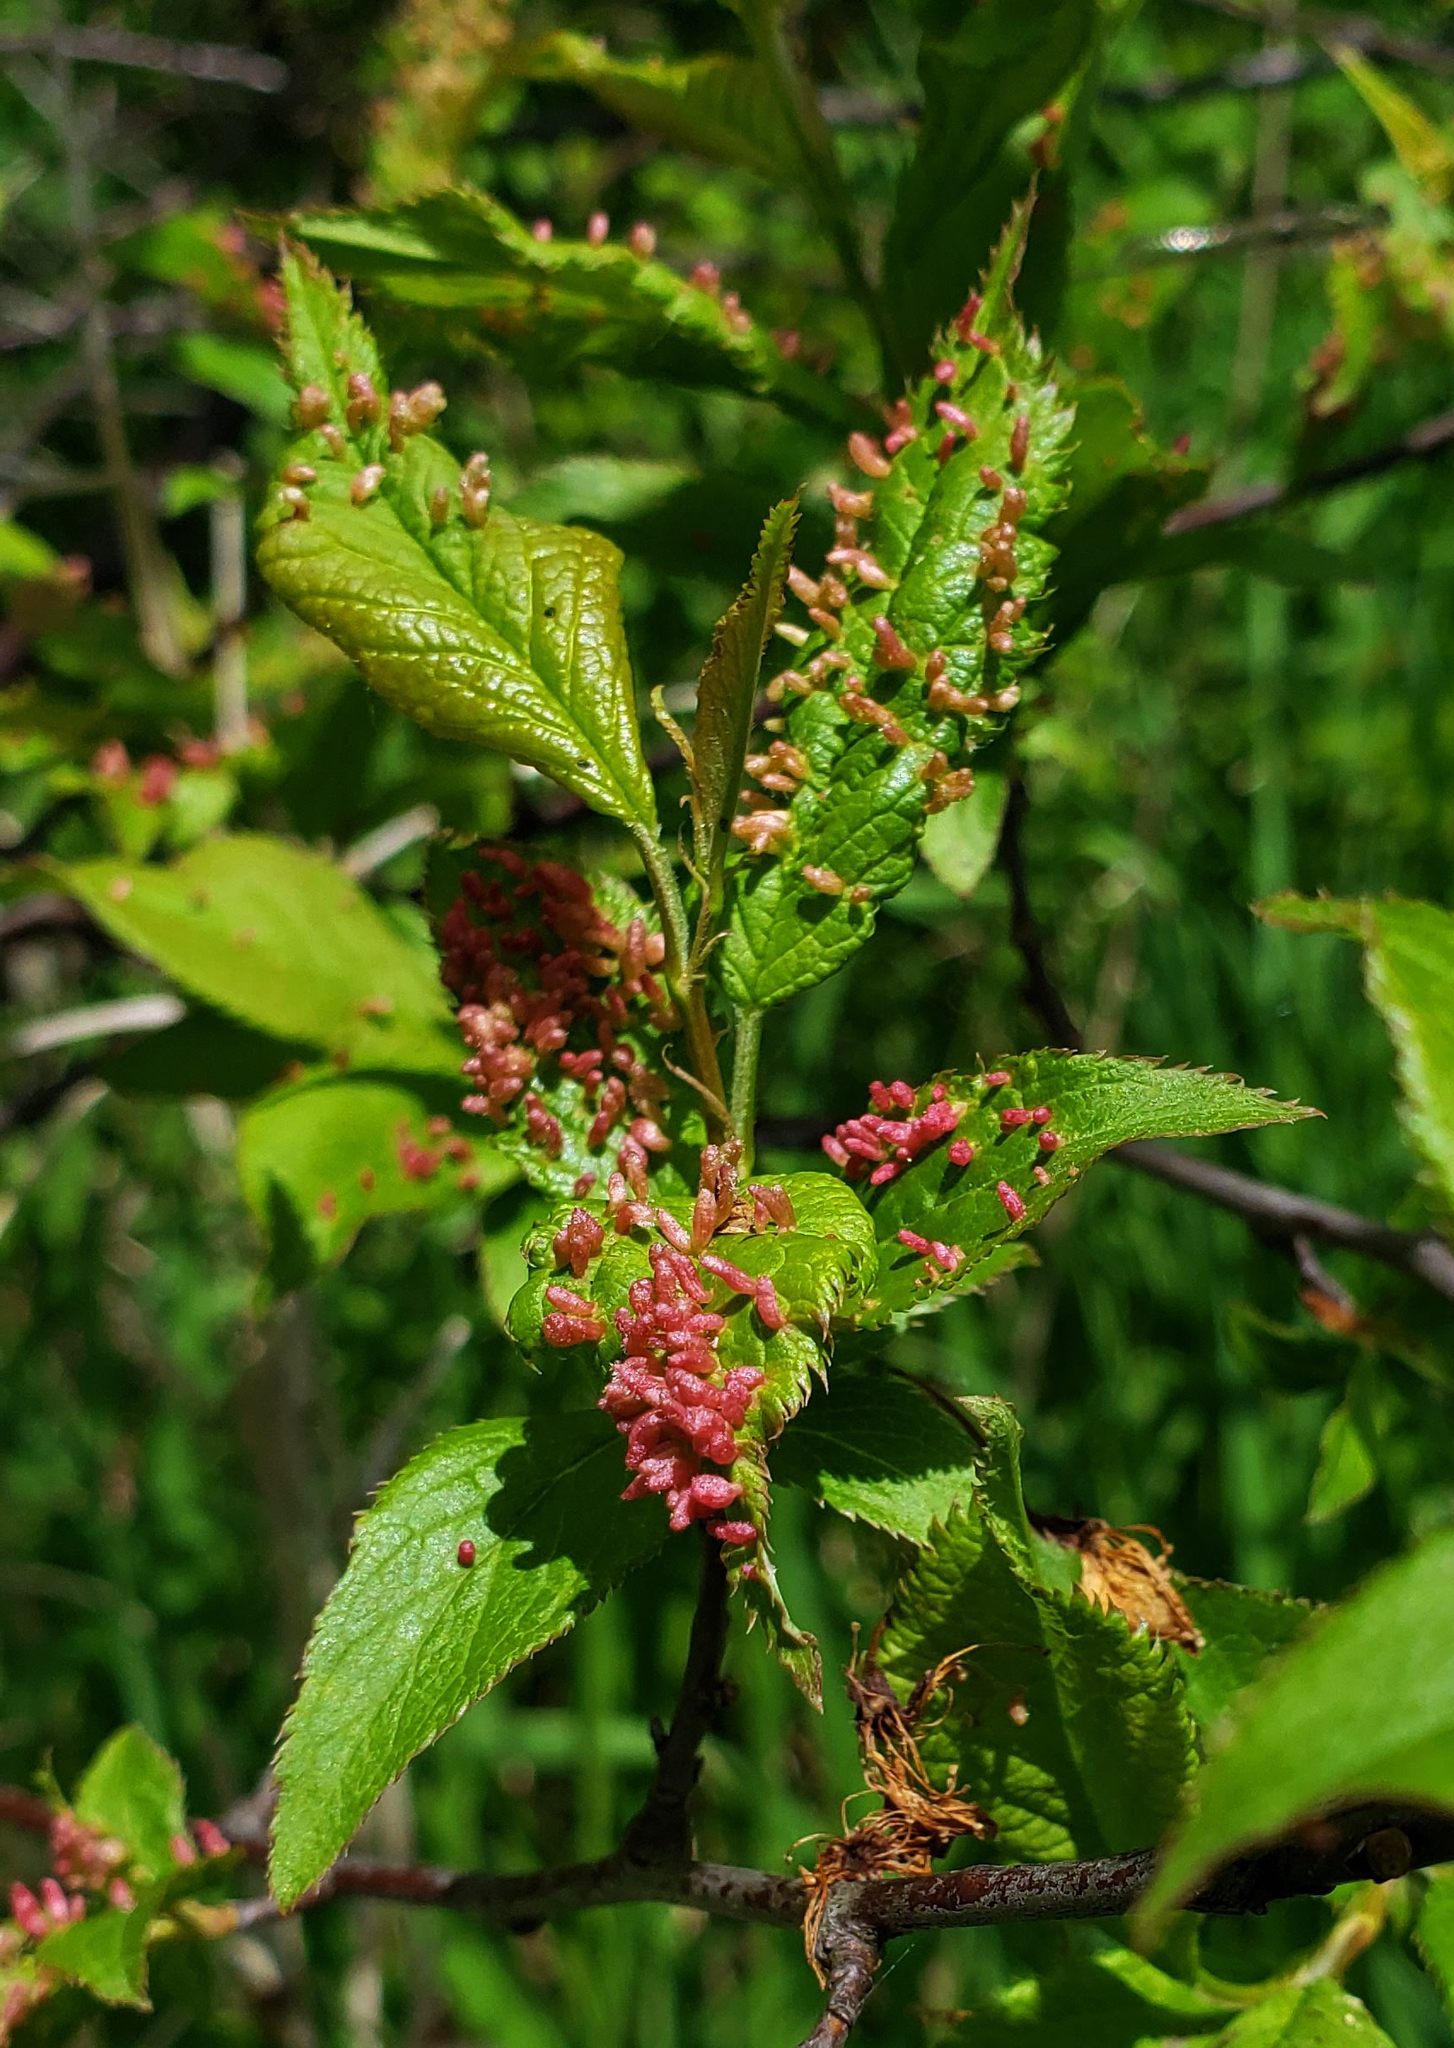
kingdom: Animalia
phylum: Arthropoda
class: Arachnida
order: Trombidiformes
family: Eriophyidae
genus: Eriophyes
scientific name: Eriophyes emarginatae
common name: Plum leaf gall mite
